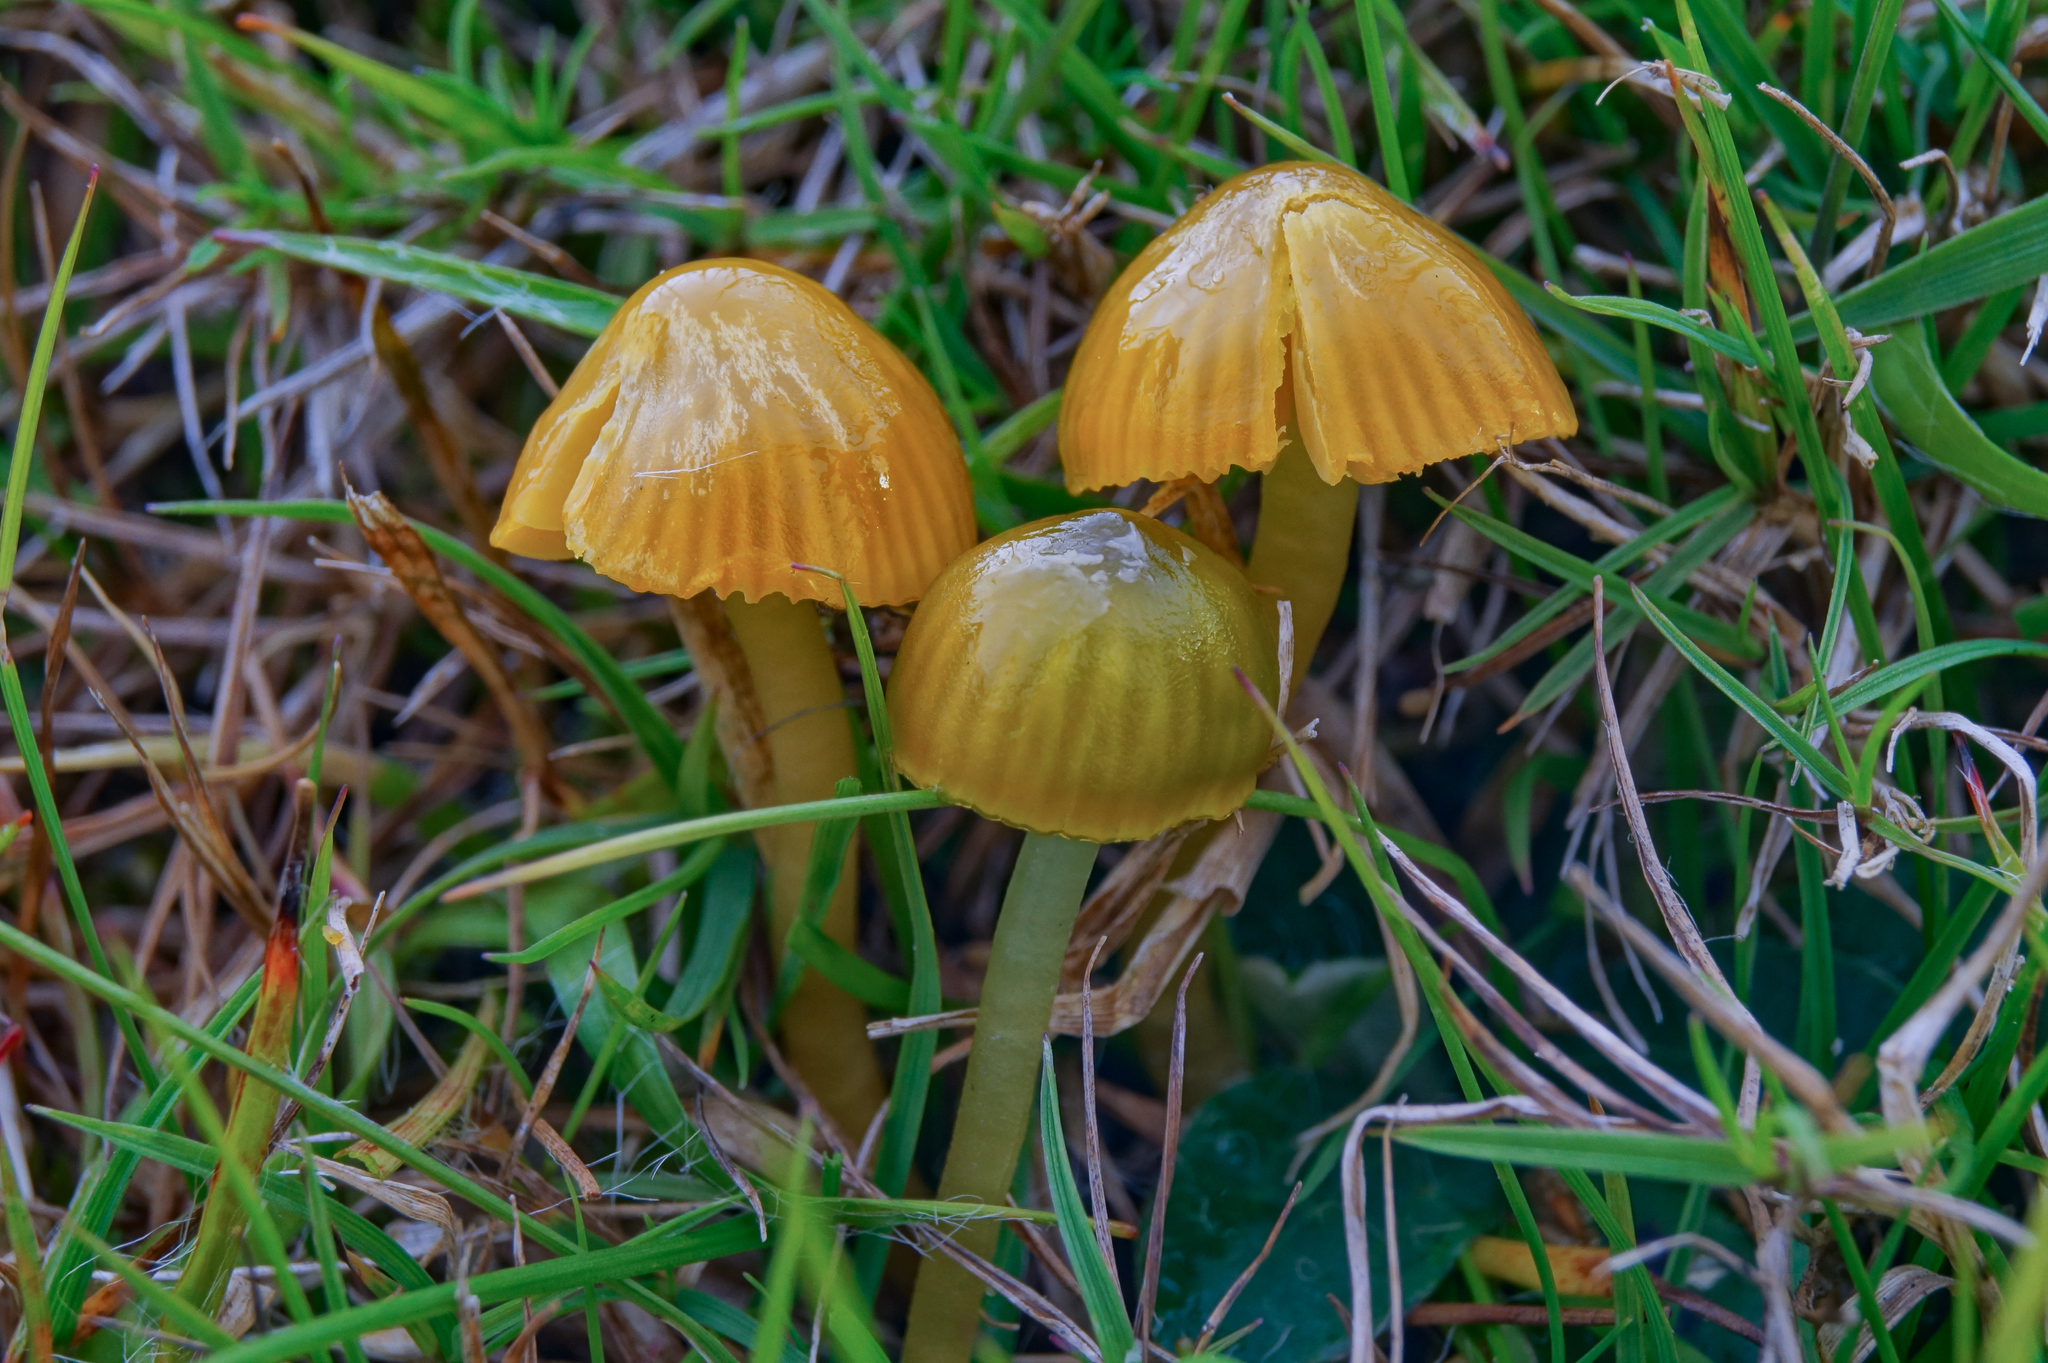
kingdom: Fungi
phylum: Basidiomycota
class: Agaricomycetes
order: Agaricales
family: Hygrophoraceae
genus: Gliophorus
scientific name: Gliophorus psittacinus
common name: Parrot wax-cap
